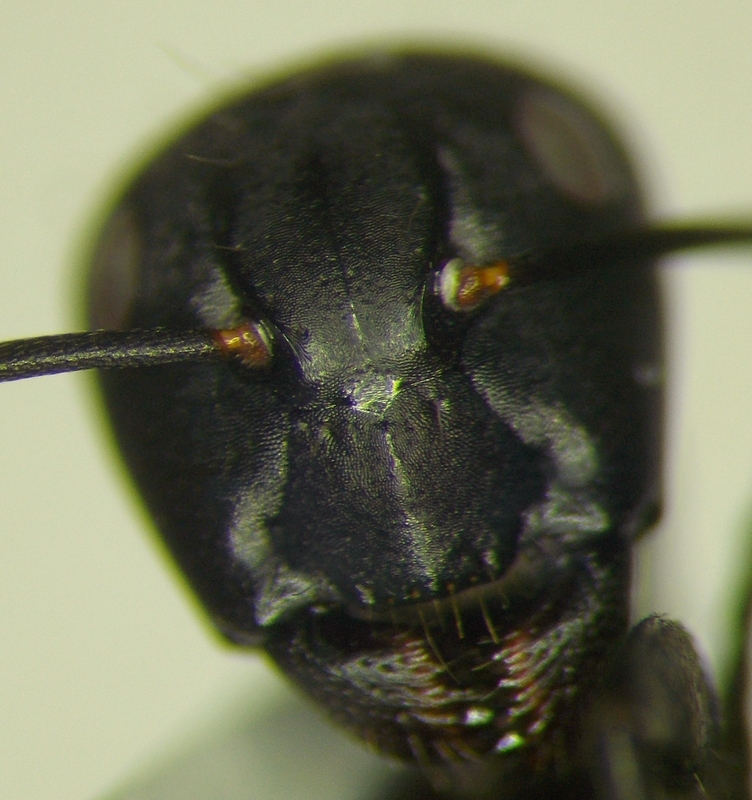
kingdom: Animalia
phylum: Arthropoda
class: Insecta
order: Hymenoptera
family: Formicidae
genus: Camponotus
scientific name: Camponotus vagus
